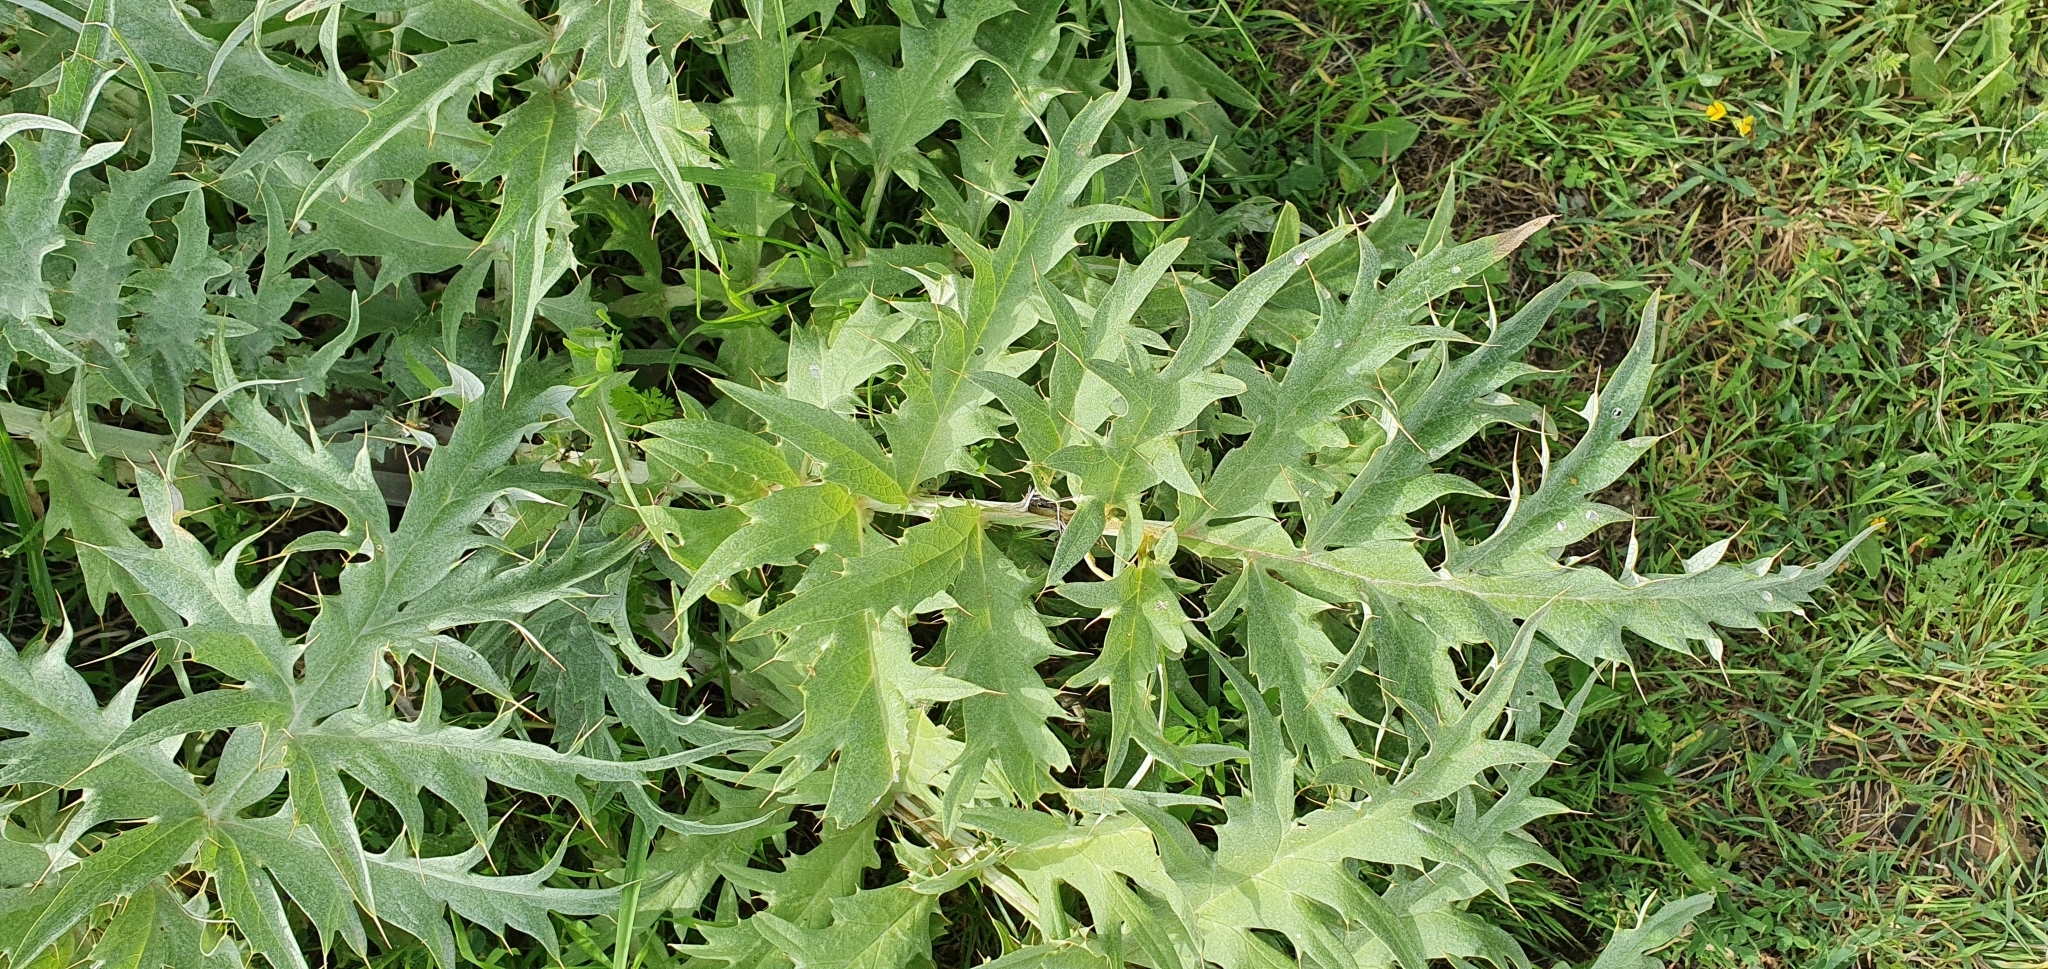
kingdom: Plantae
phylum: Tracheophyta
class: Magnoliopsida
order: Asterales
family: Asteraceae
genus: Cynara
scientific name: Cynara cardunculus
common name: Globe artichoke
